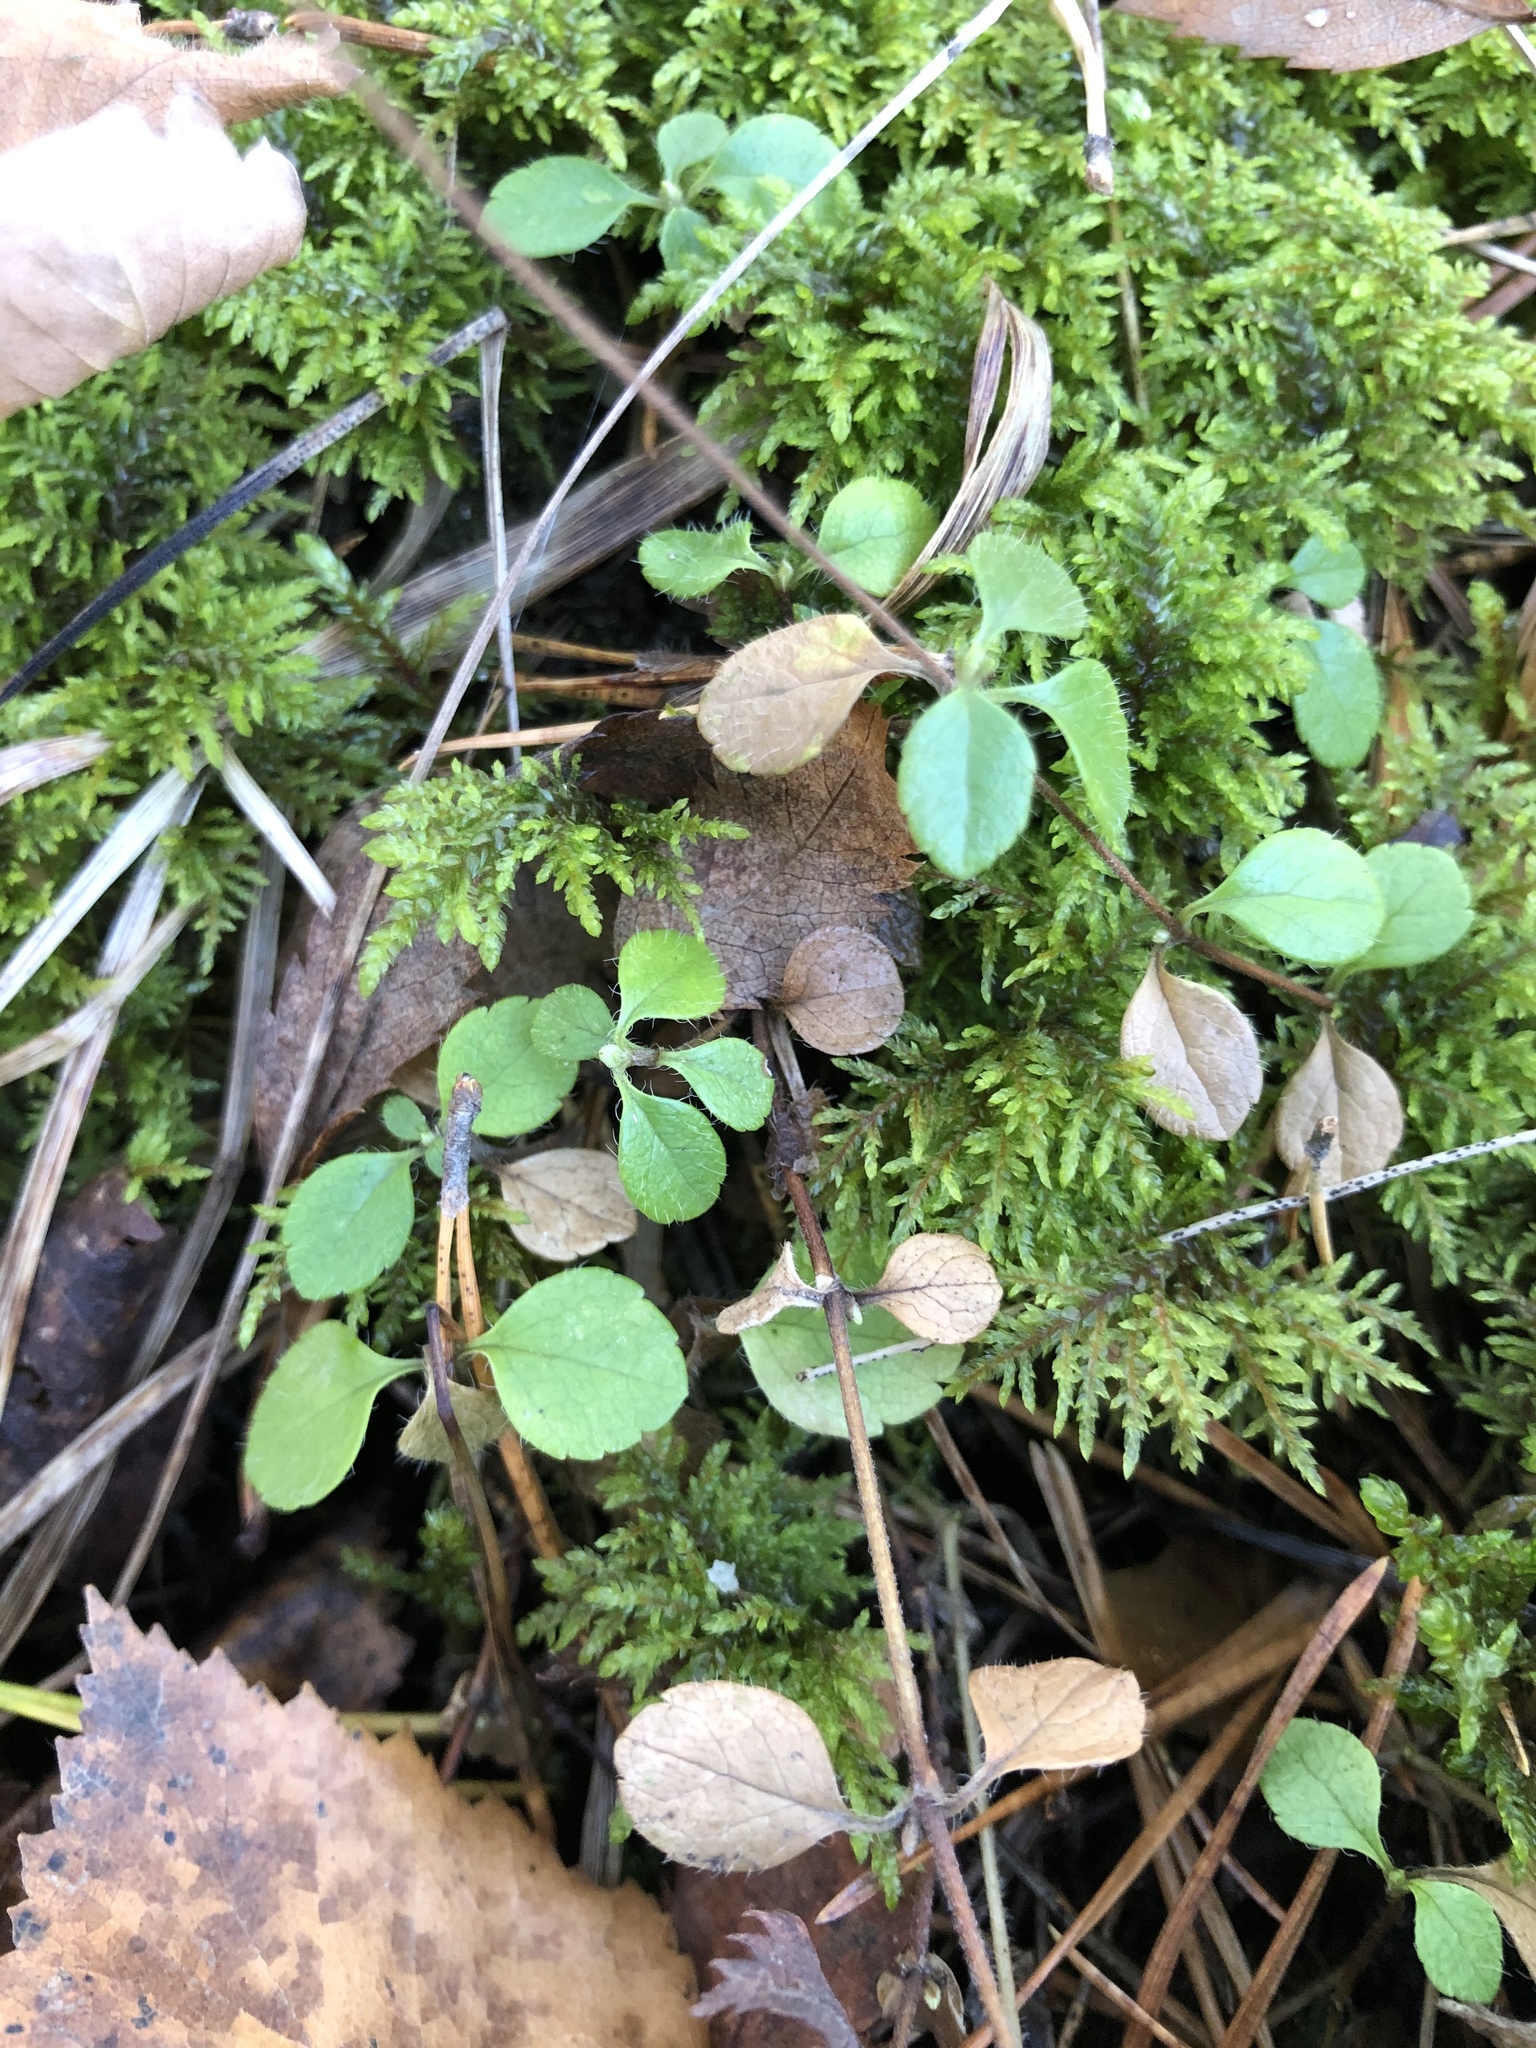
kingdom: Plantae
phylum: Tracheophyta
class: Magnoliopsida
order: Dipsacales
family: Caprifoliaceae
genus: Linnaea
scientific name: Linnaea borealis
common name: Twinflower
